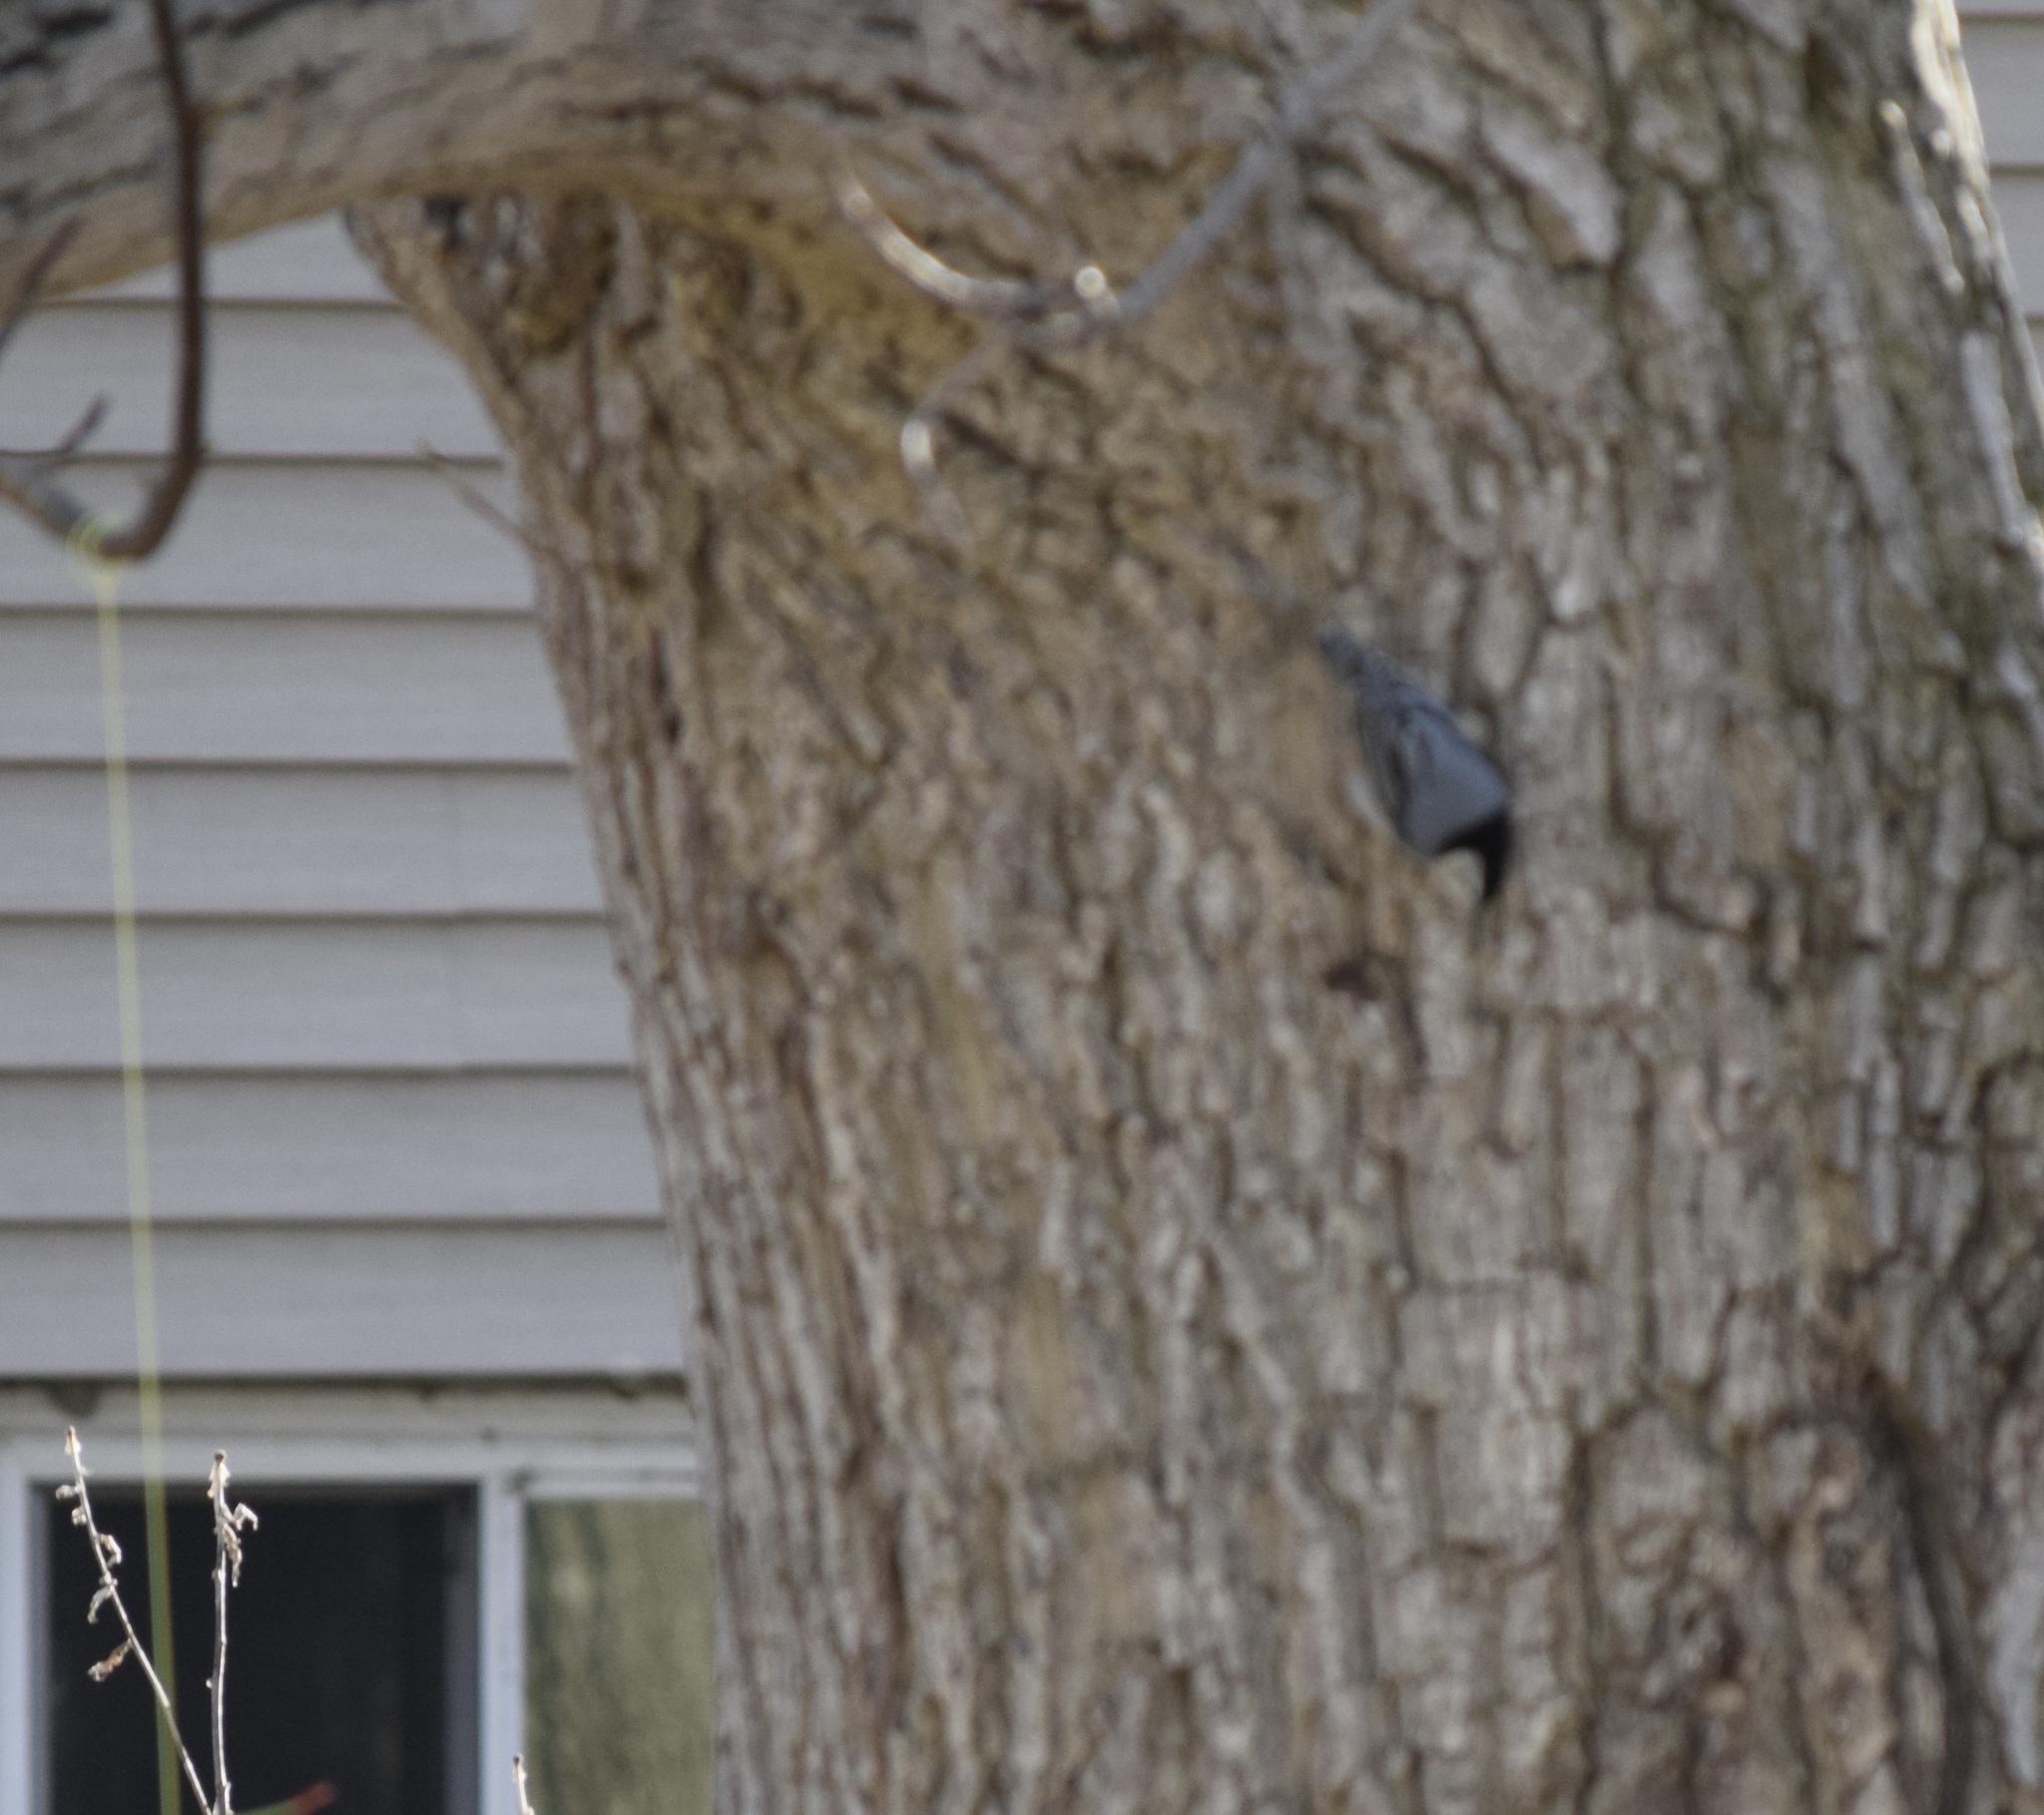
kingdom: Animalia
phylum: Chordata
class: Aves
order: Passeriformes
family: Sittidae
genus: Sitta
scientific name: Sitta carolinensis
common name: White-breasted nuthatch
